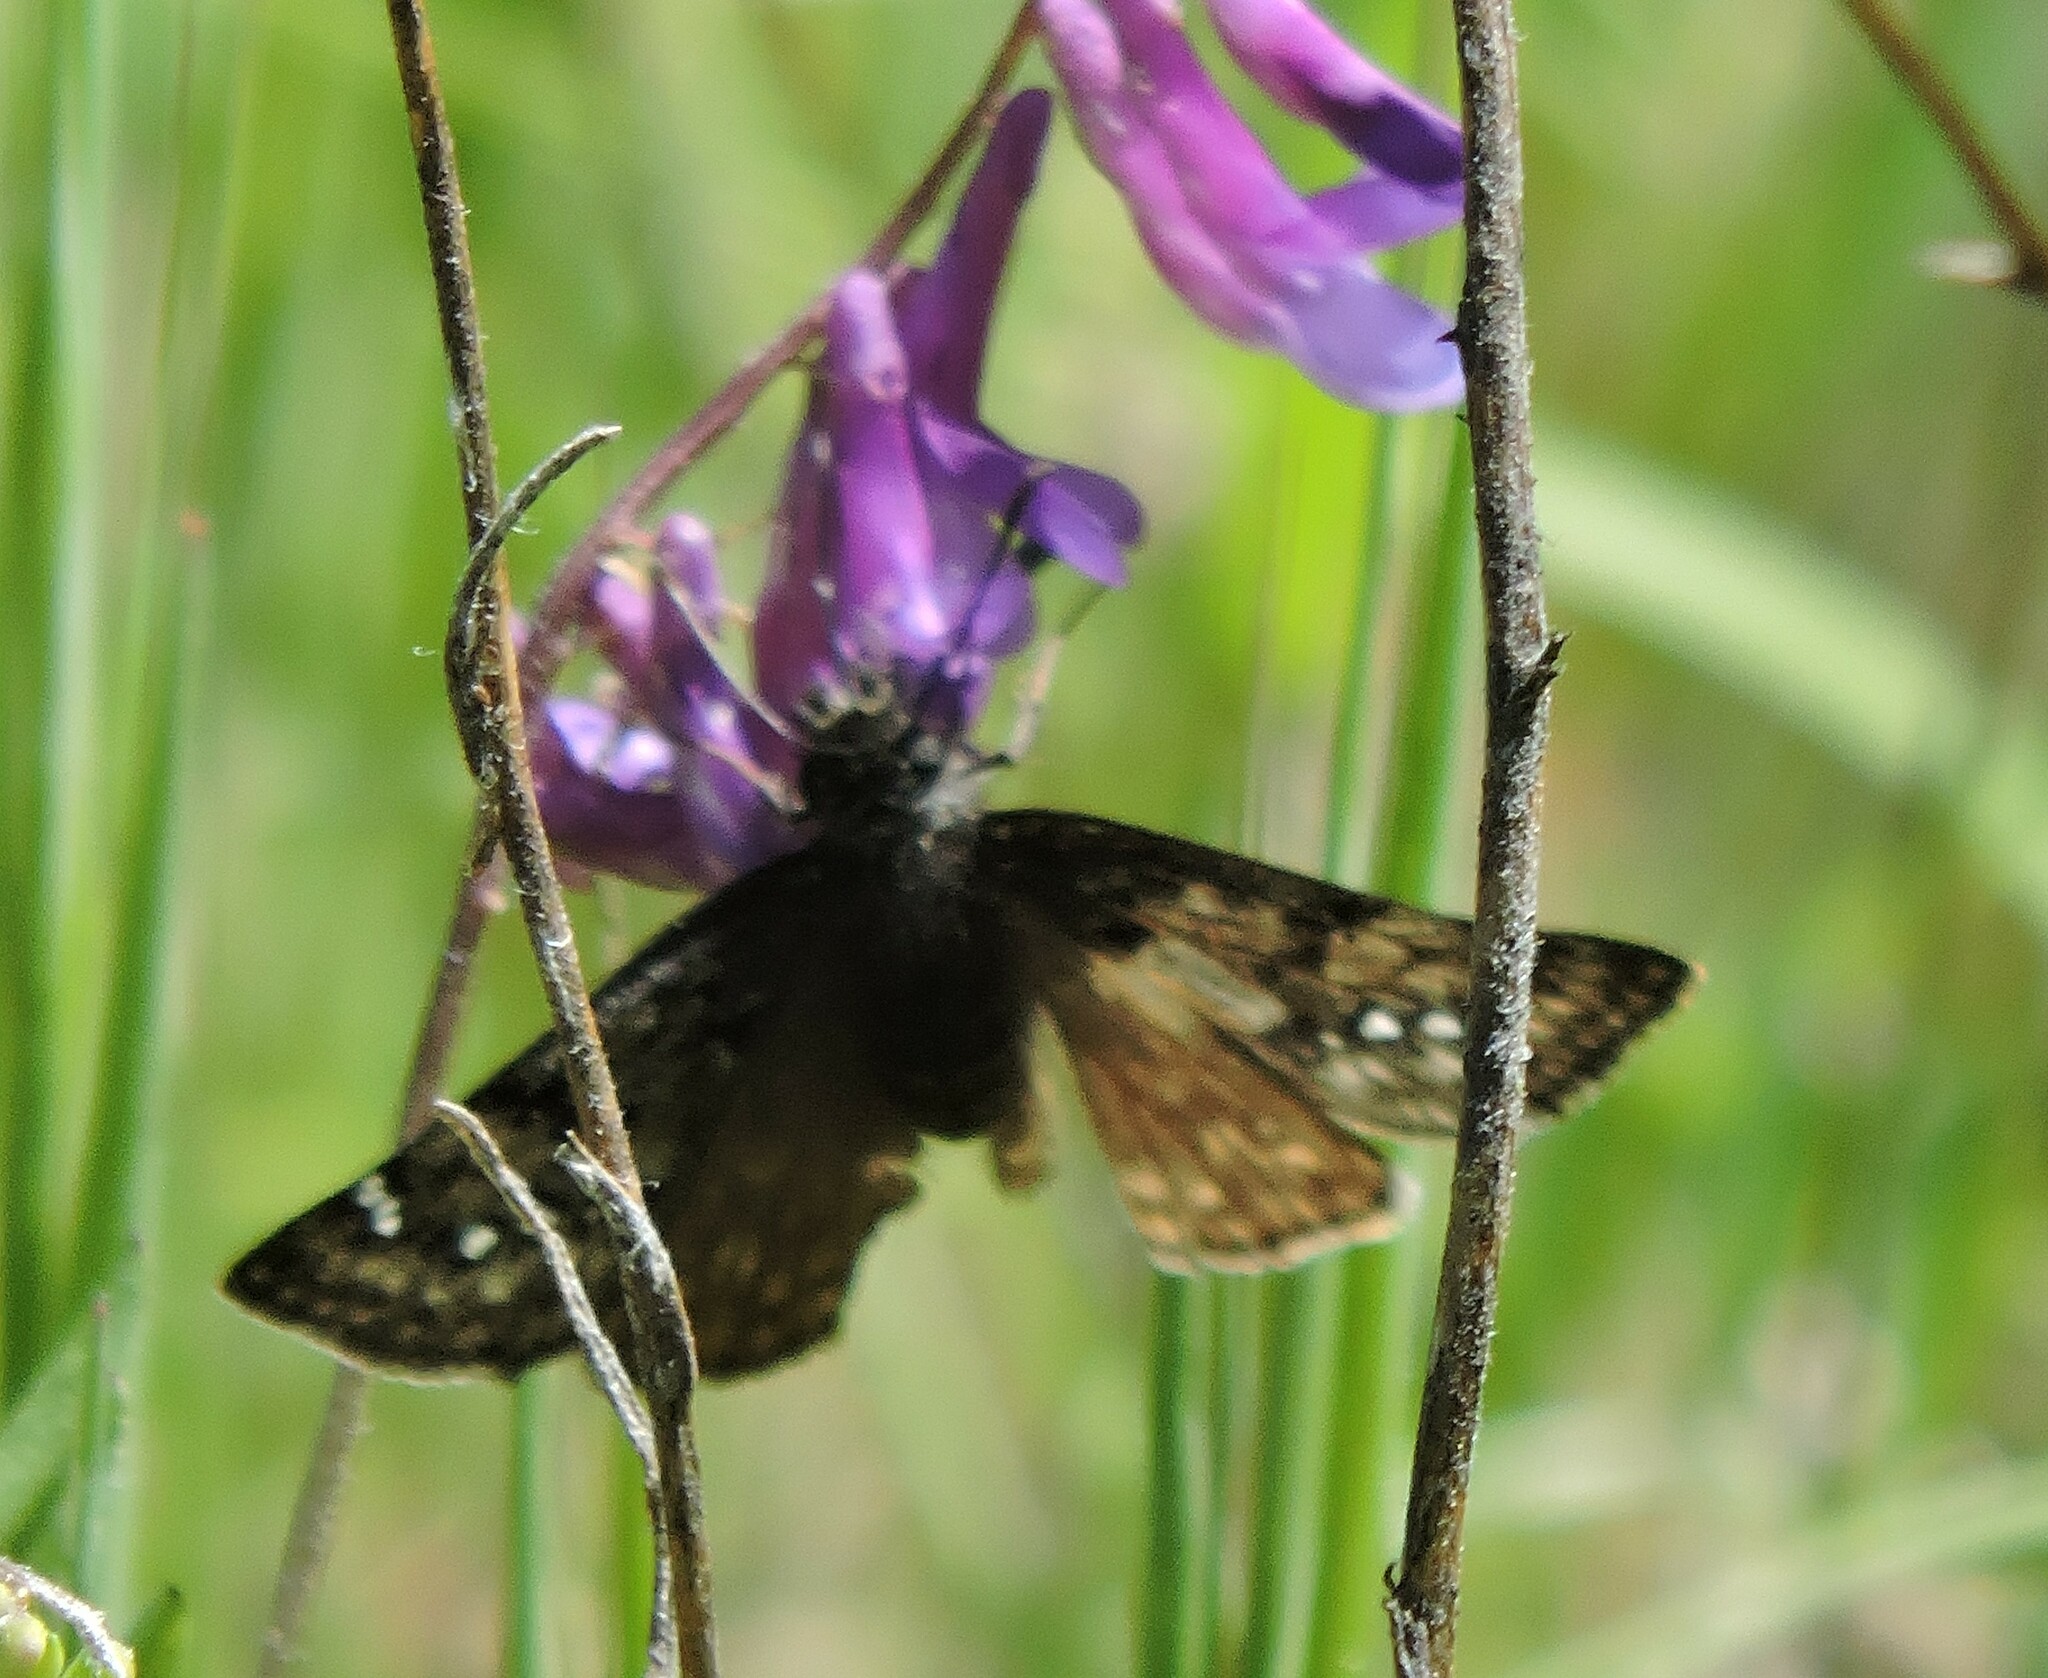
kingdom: Animalia
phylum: Arthropoda
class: Insecta
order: Lepidoptera
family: Hesperiidae
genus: Erynnis
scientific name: Erynnis propertius
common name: Propertius duskywing
